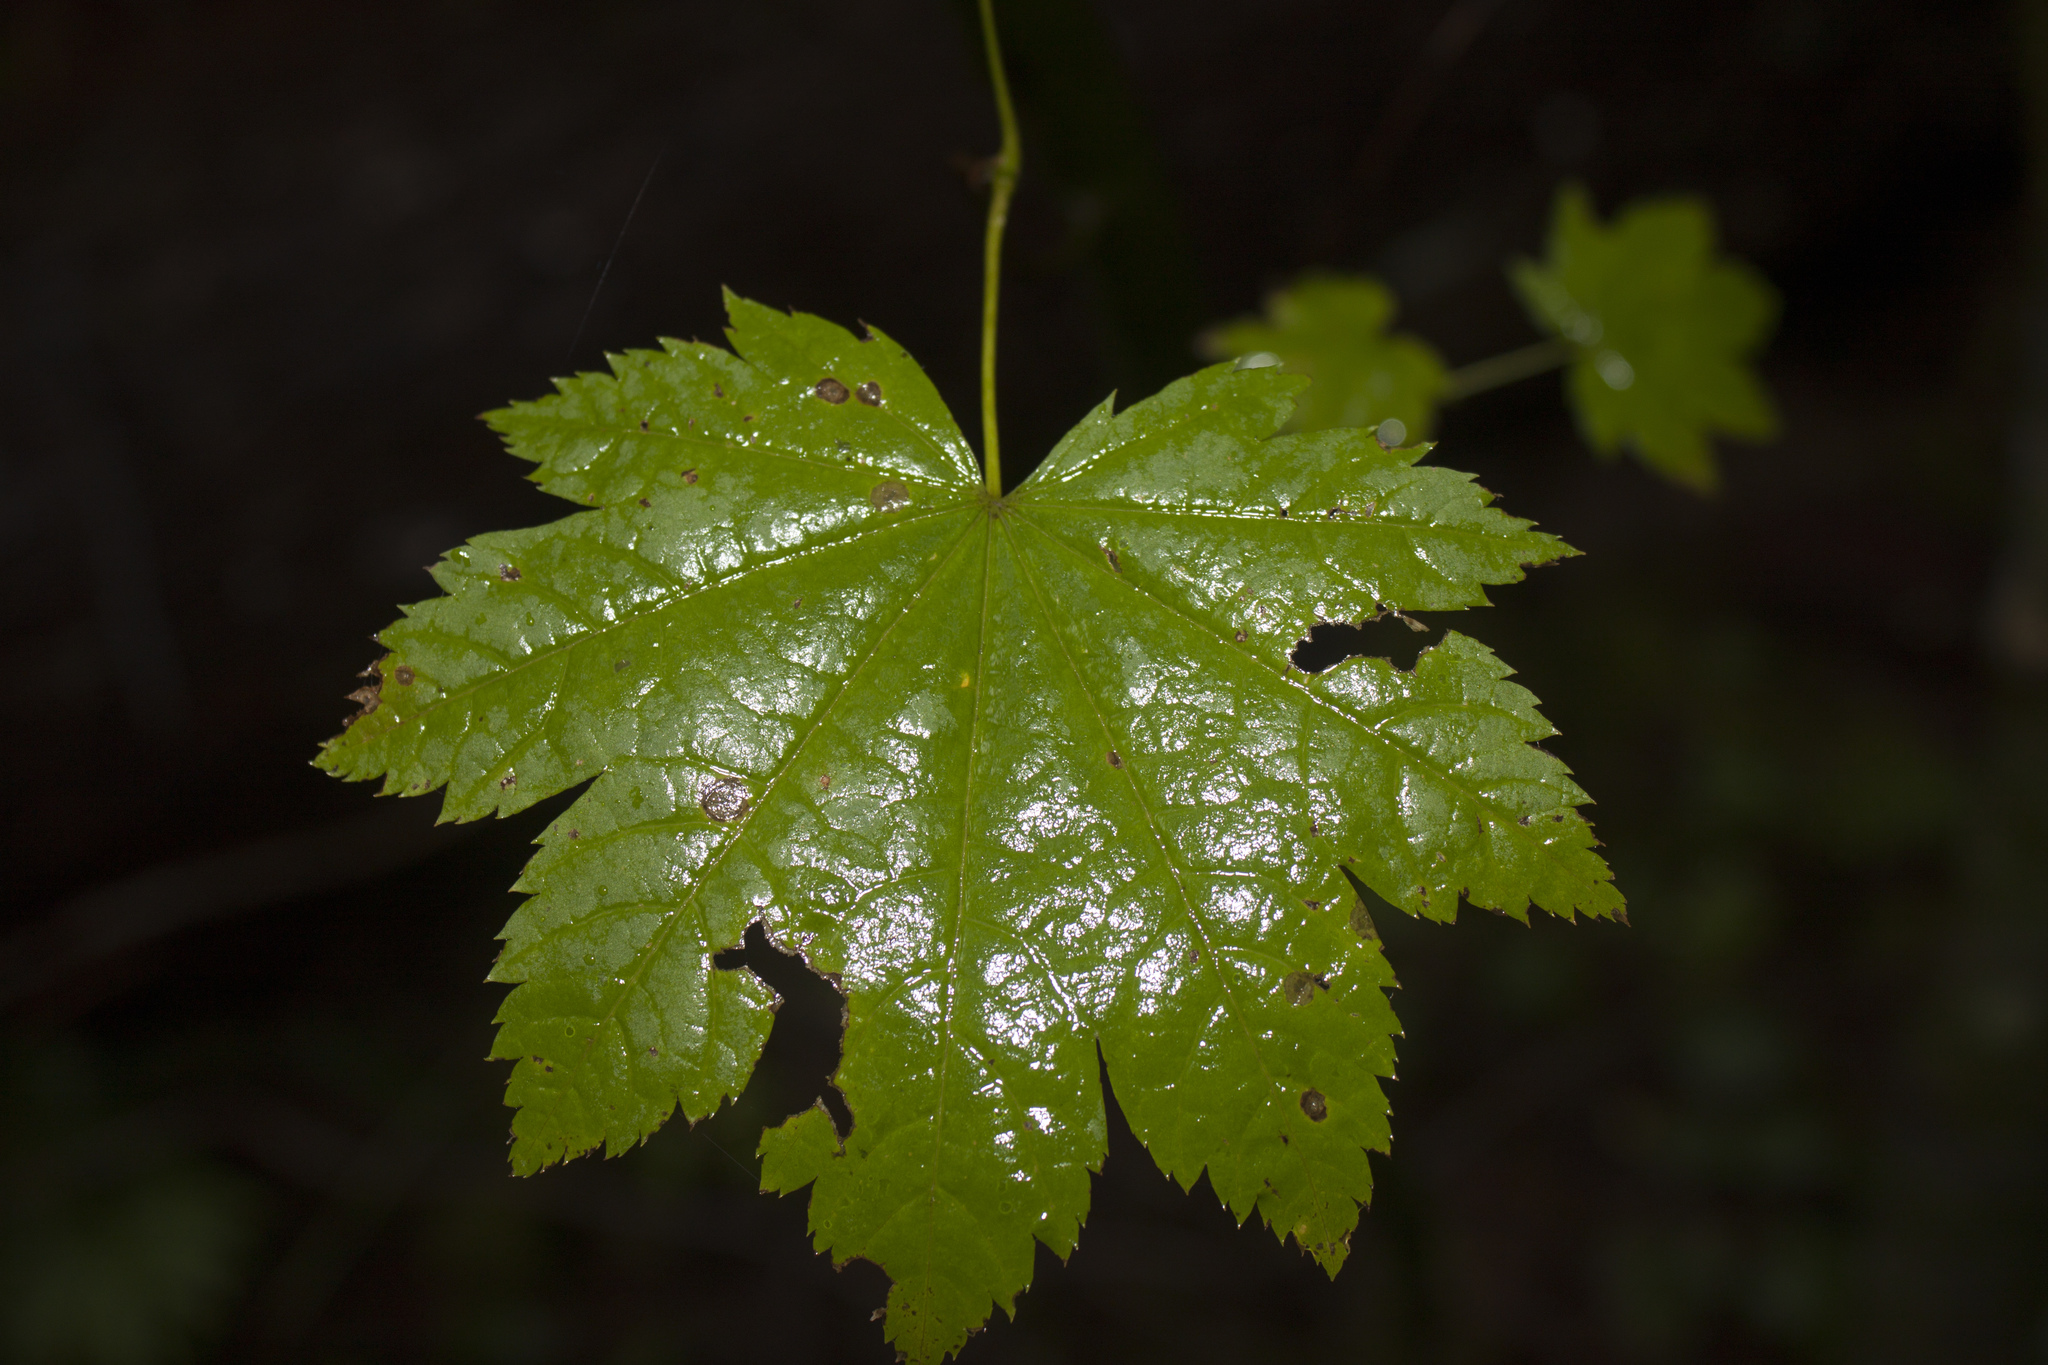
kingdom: Plantae
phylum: Tracheophyta
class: Magnoliopsida
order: Sapindales
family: Sapindaceae
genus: Acer
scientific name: Acer circinatum
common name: Vine maple
